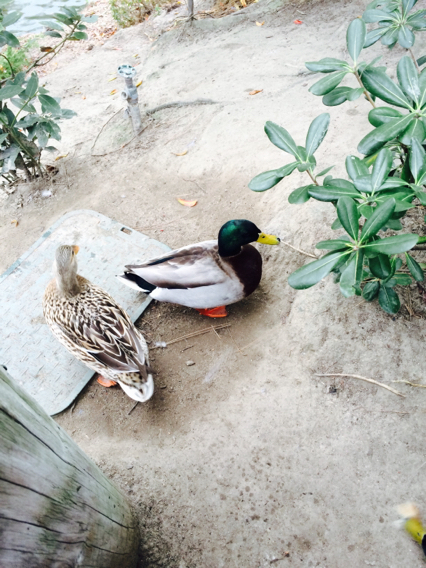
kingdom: Animalia
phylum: Chordata
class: Aves
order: Anseriformes
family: Anatidae
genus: Anas
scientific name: Anas platyrhynchos
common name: Mallard
